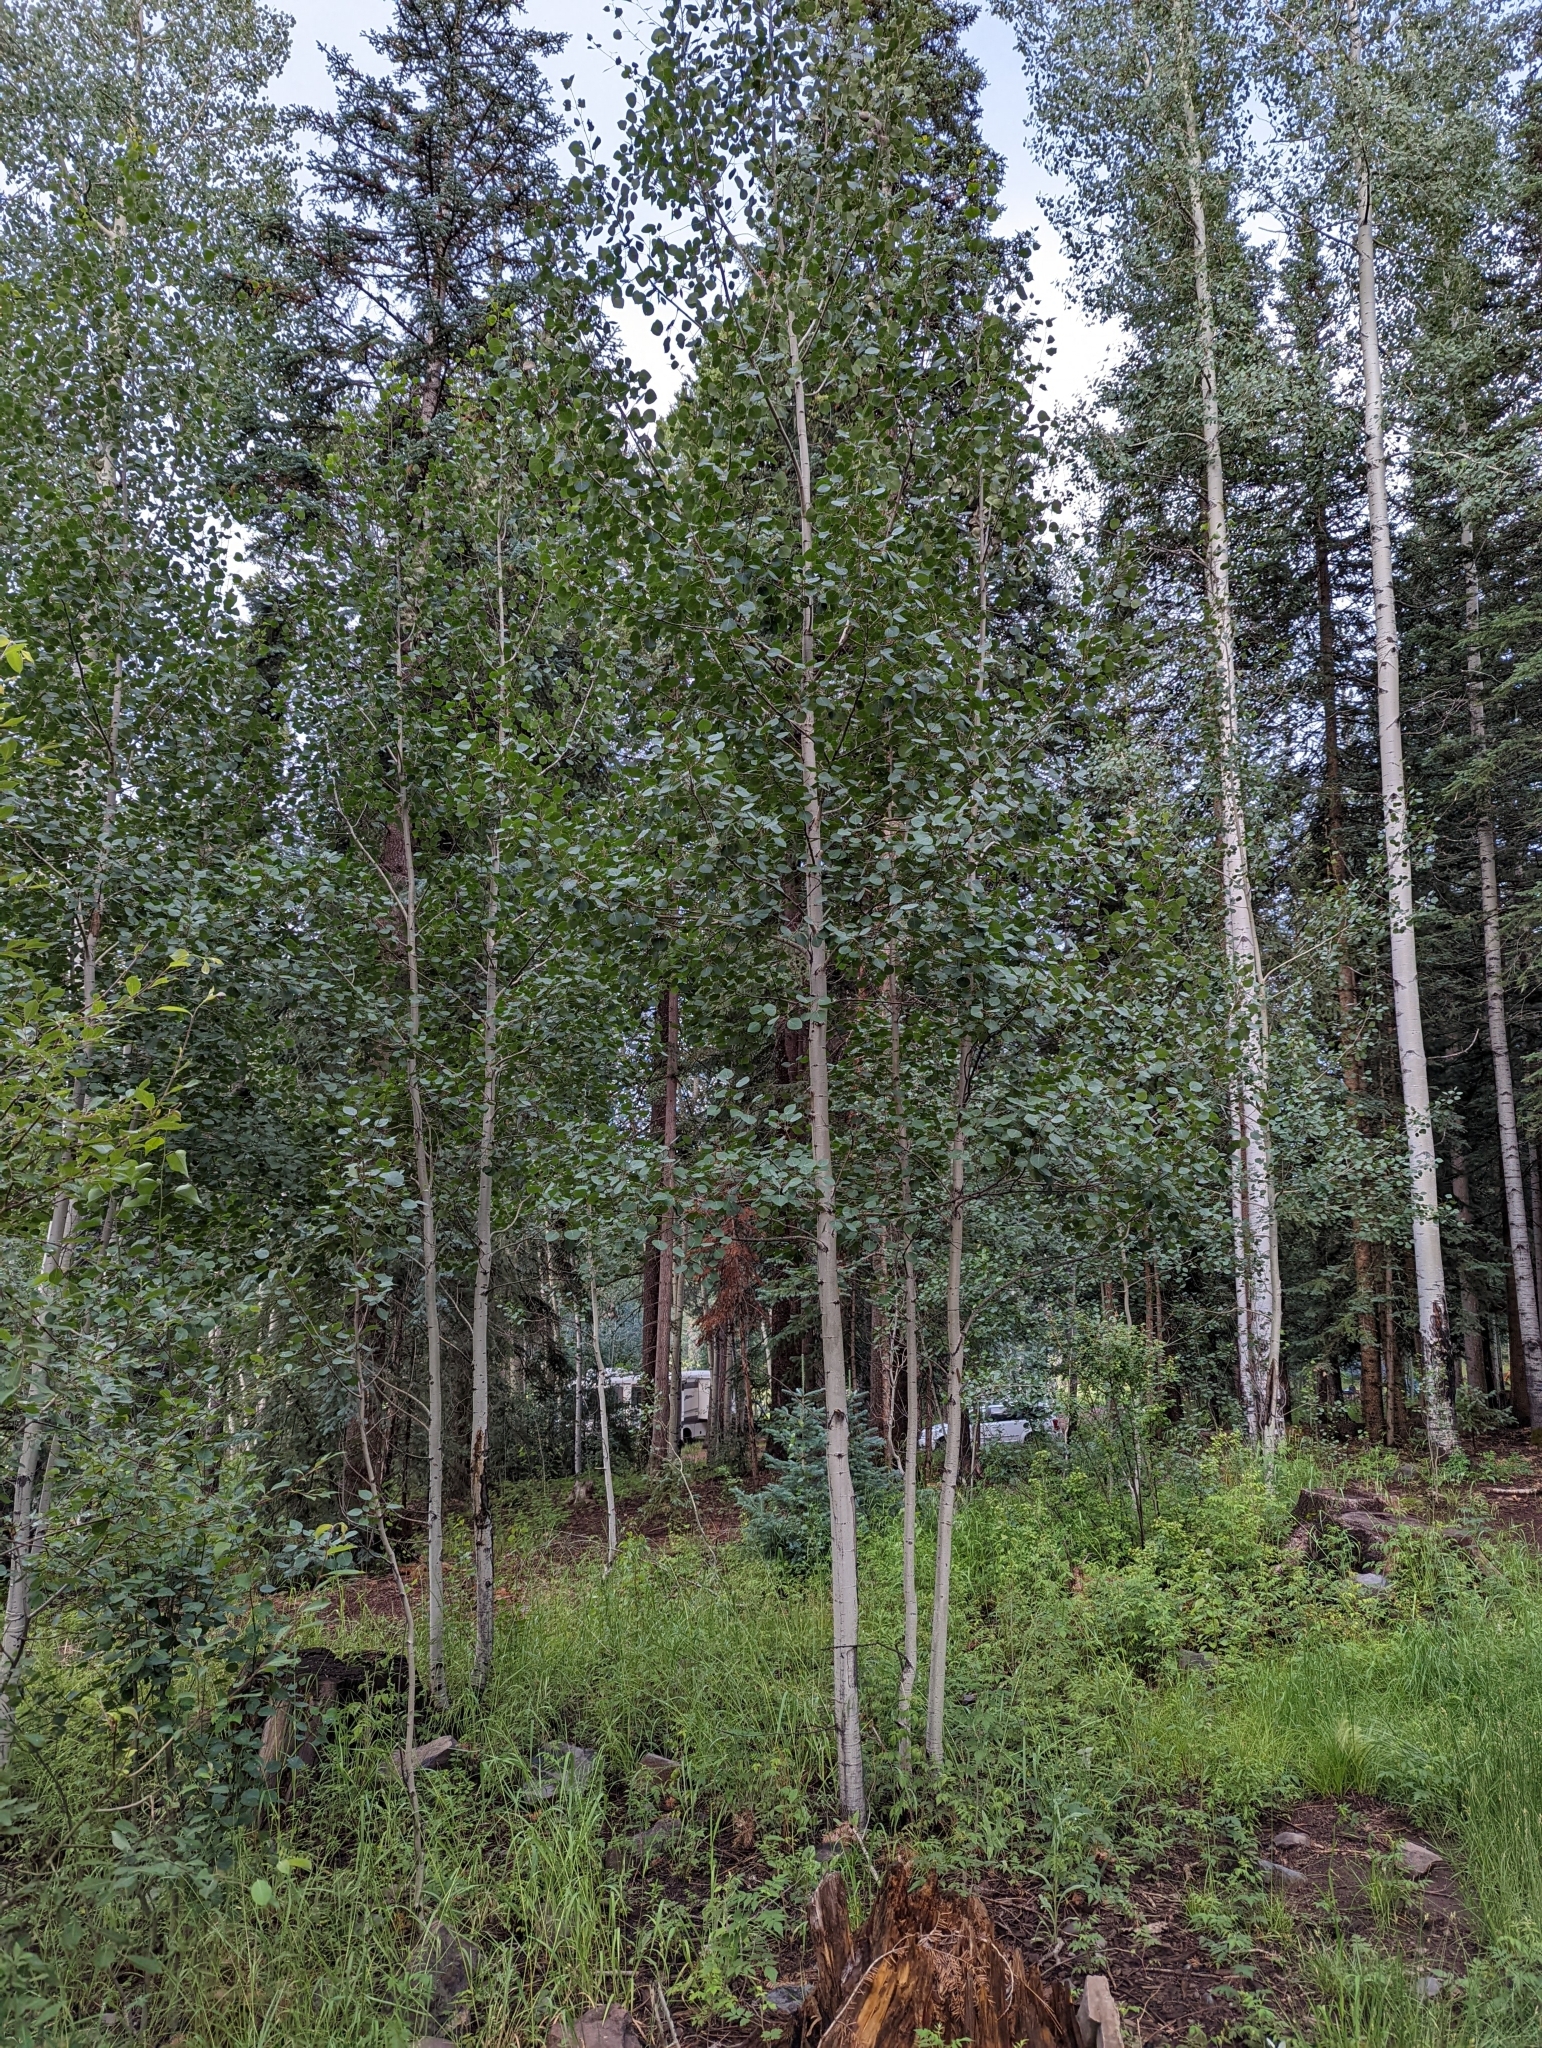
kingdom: Plantae
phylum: Tracheophyta
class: Magnoliopsida
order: Malpighiales
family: Salicaceae
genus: Populus
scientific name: Populus tremuloides
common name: Quaking aspen
